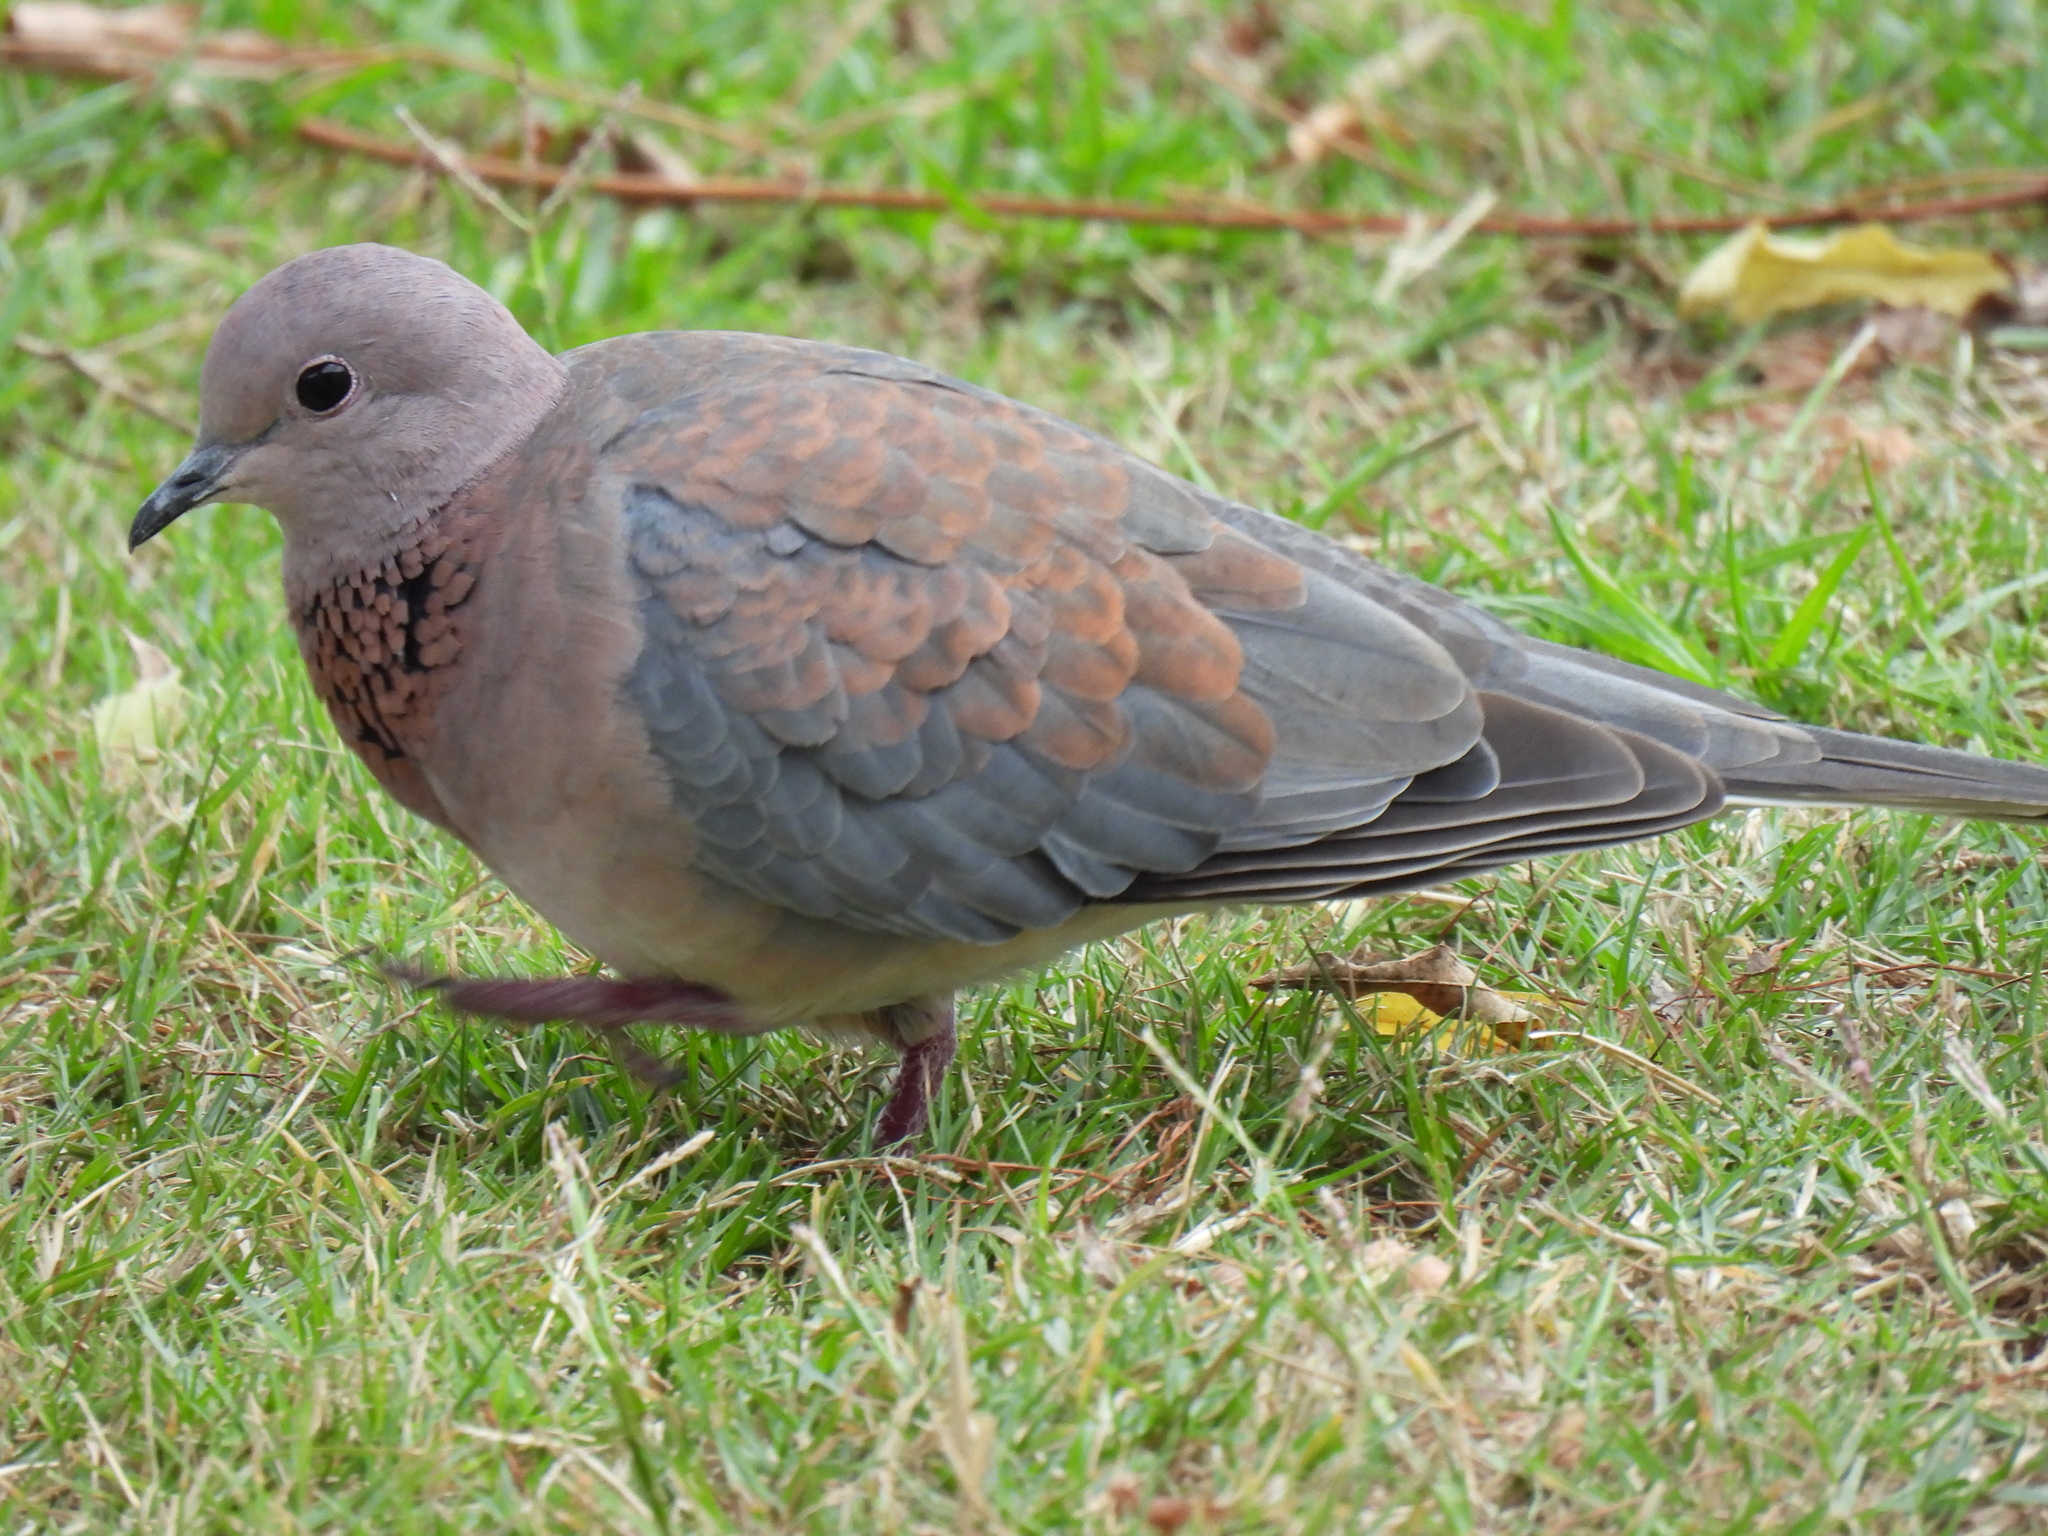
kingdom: Animalia
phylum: Chordata
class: Aves
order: Columbiformes
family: Columbidae
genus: Spilopelia
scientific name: Spilopelia senegalensis
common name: Laughing dove
